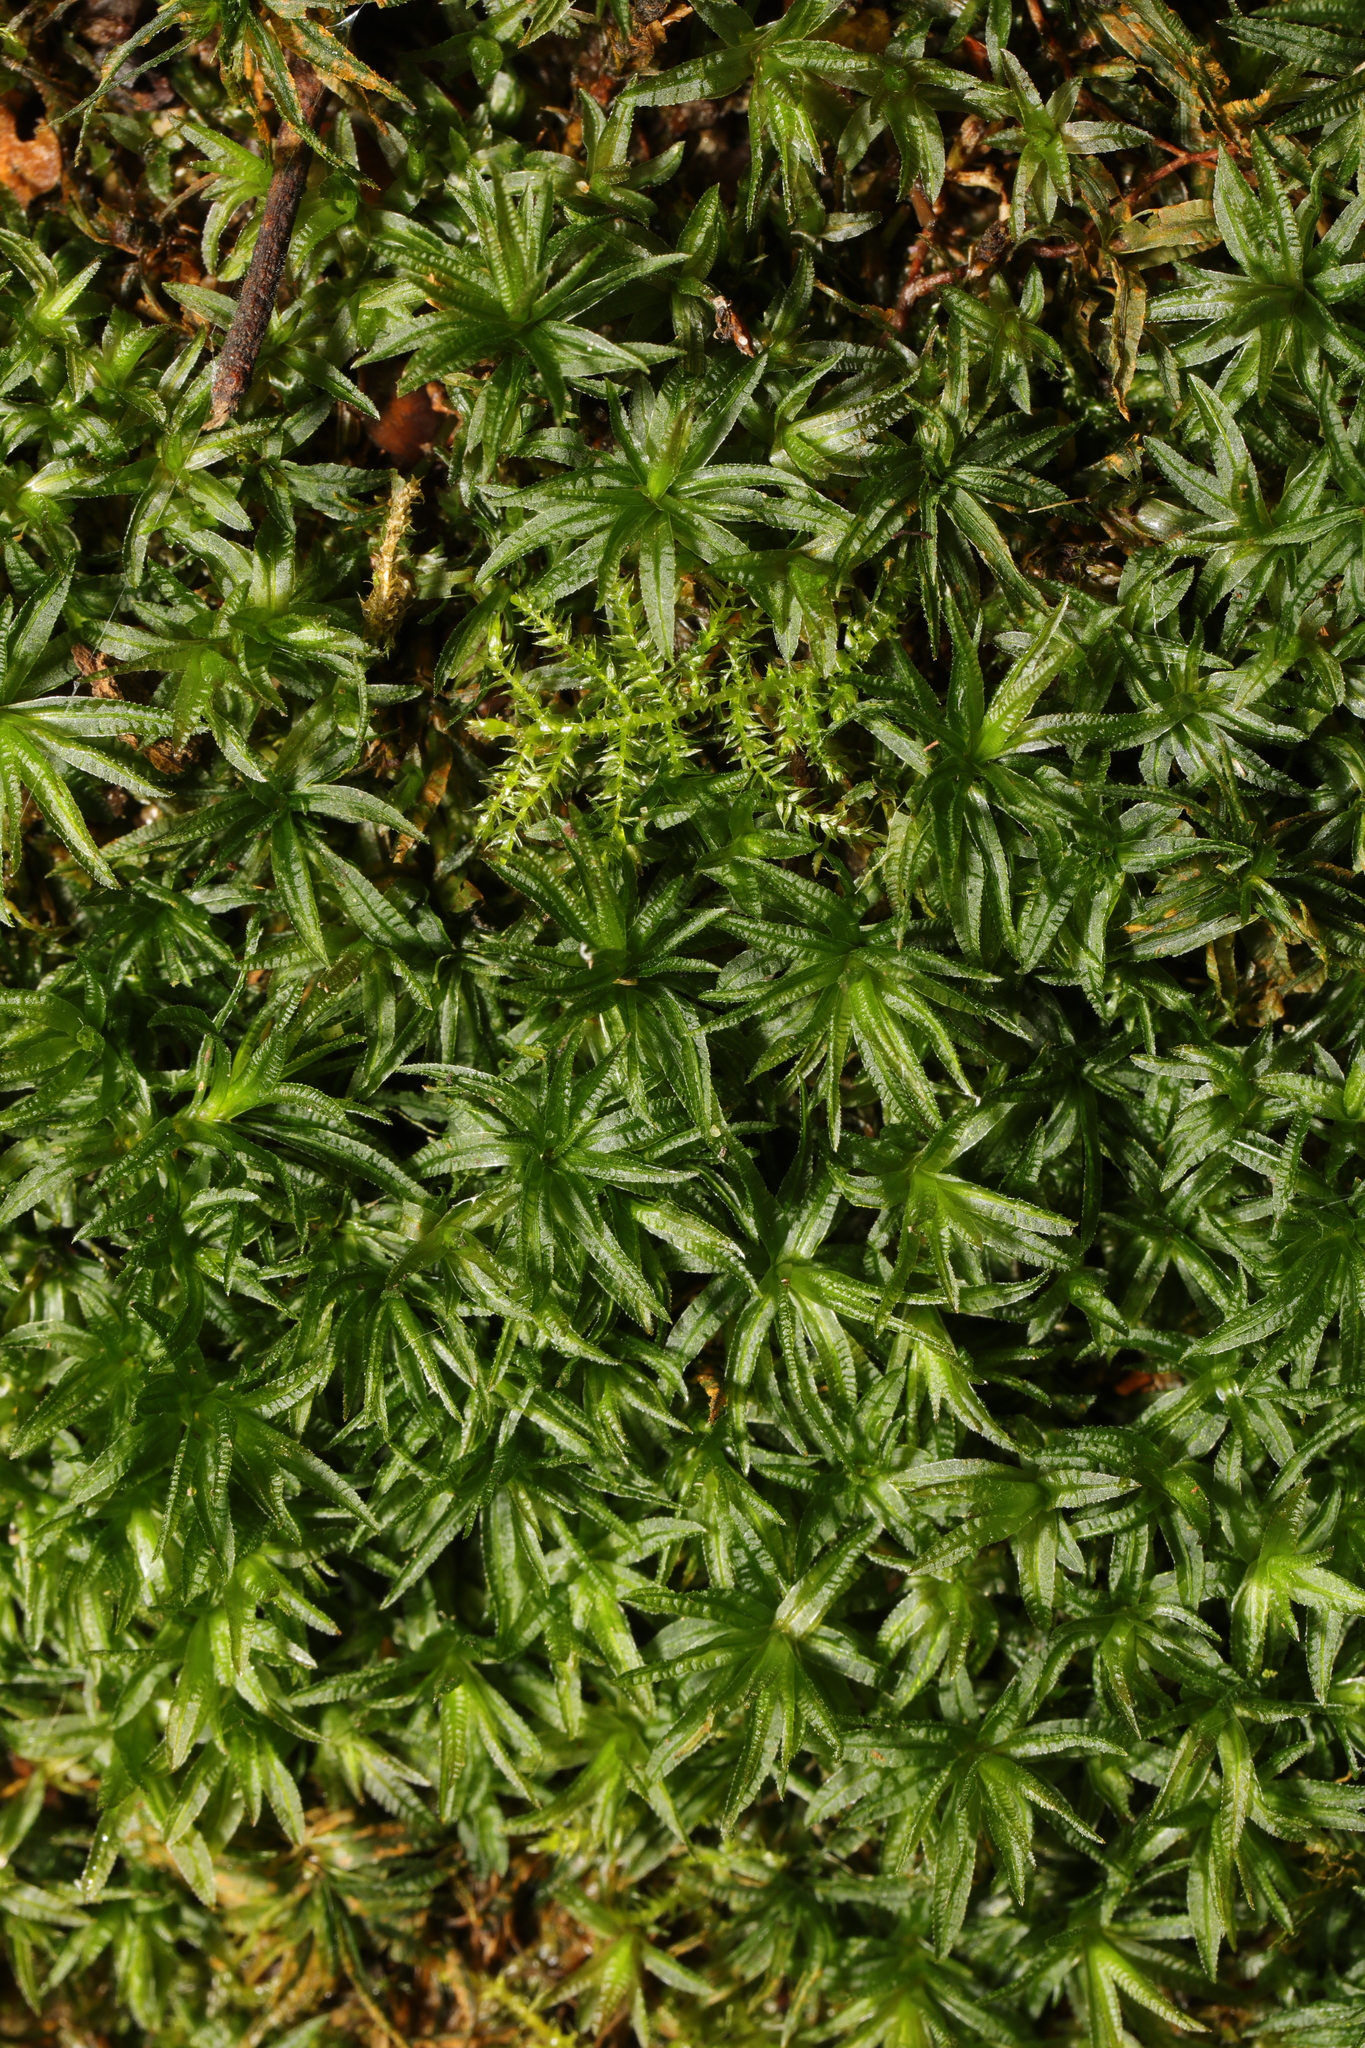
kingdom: Plantae
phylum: Bryophyta
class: Polytrichopsida
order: Polytrichales
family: Polytrichaceae
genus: Atrichum
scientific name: Atrichum undulatum
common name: Common smoothcap
